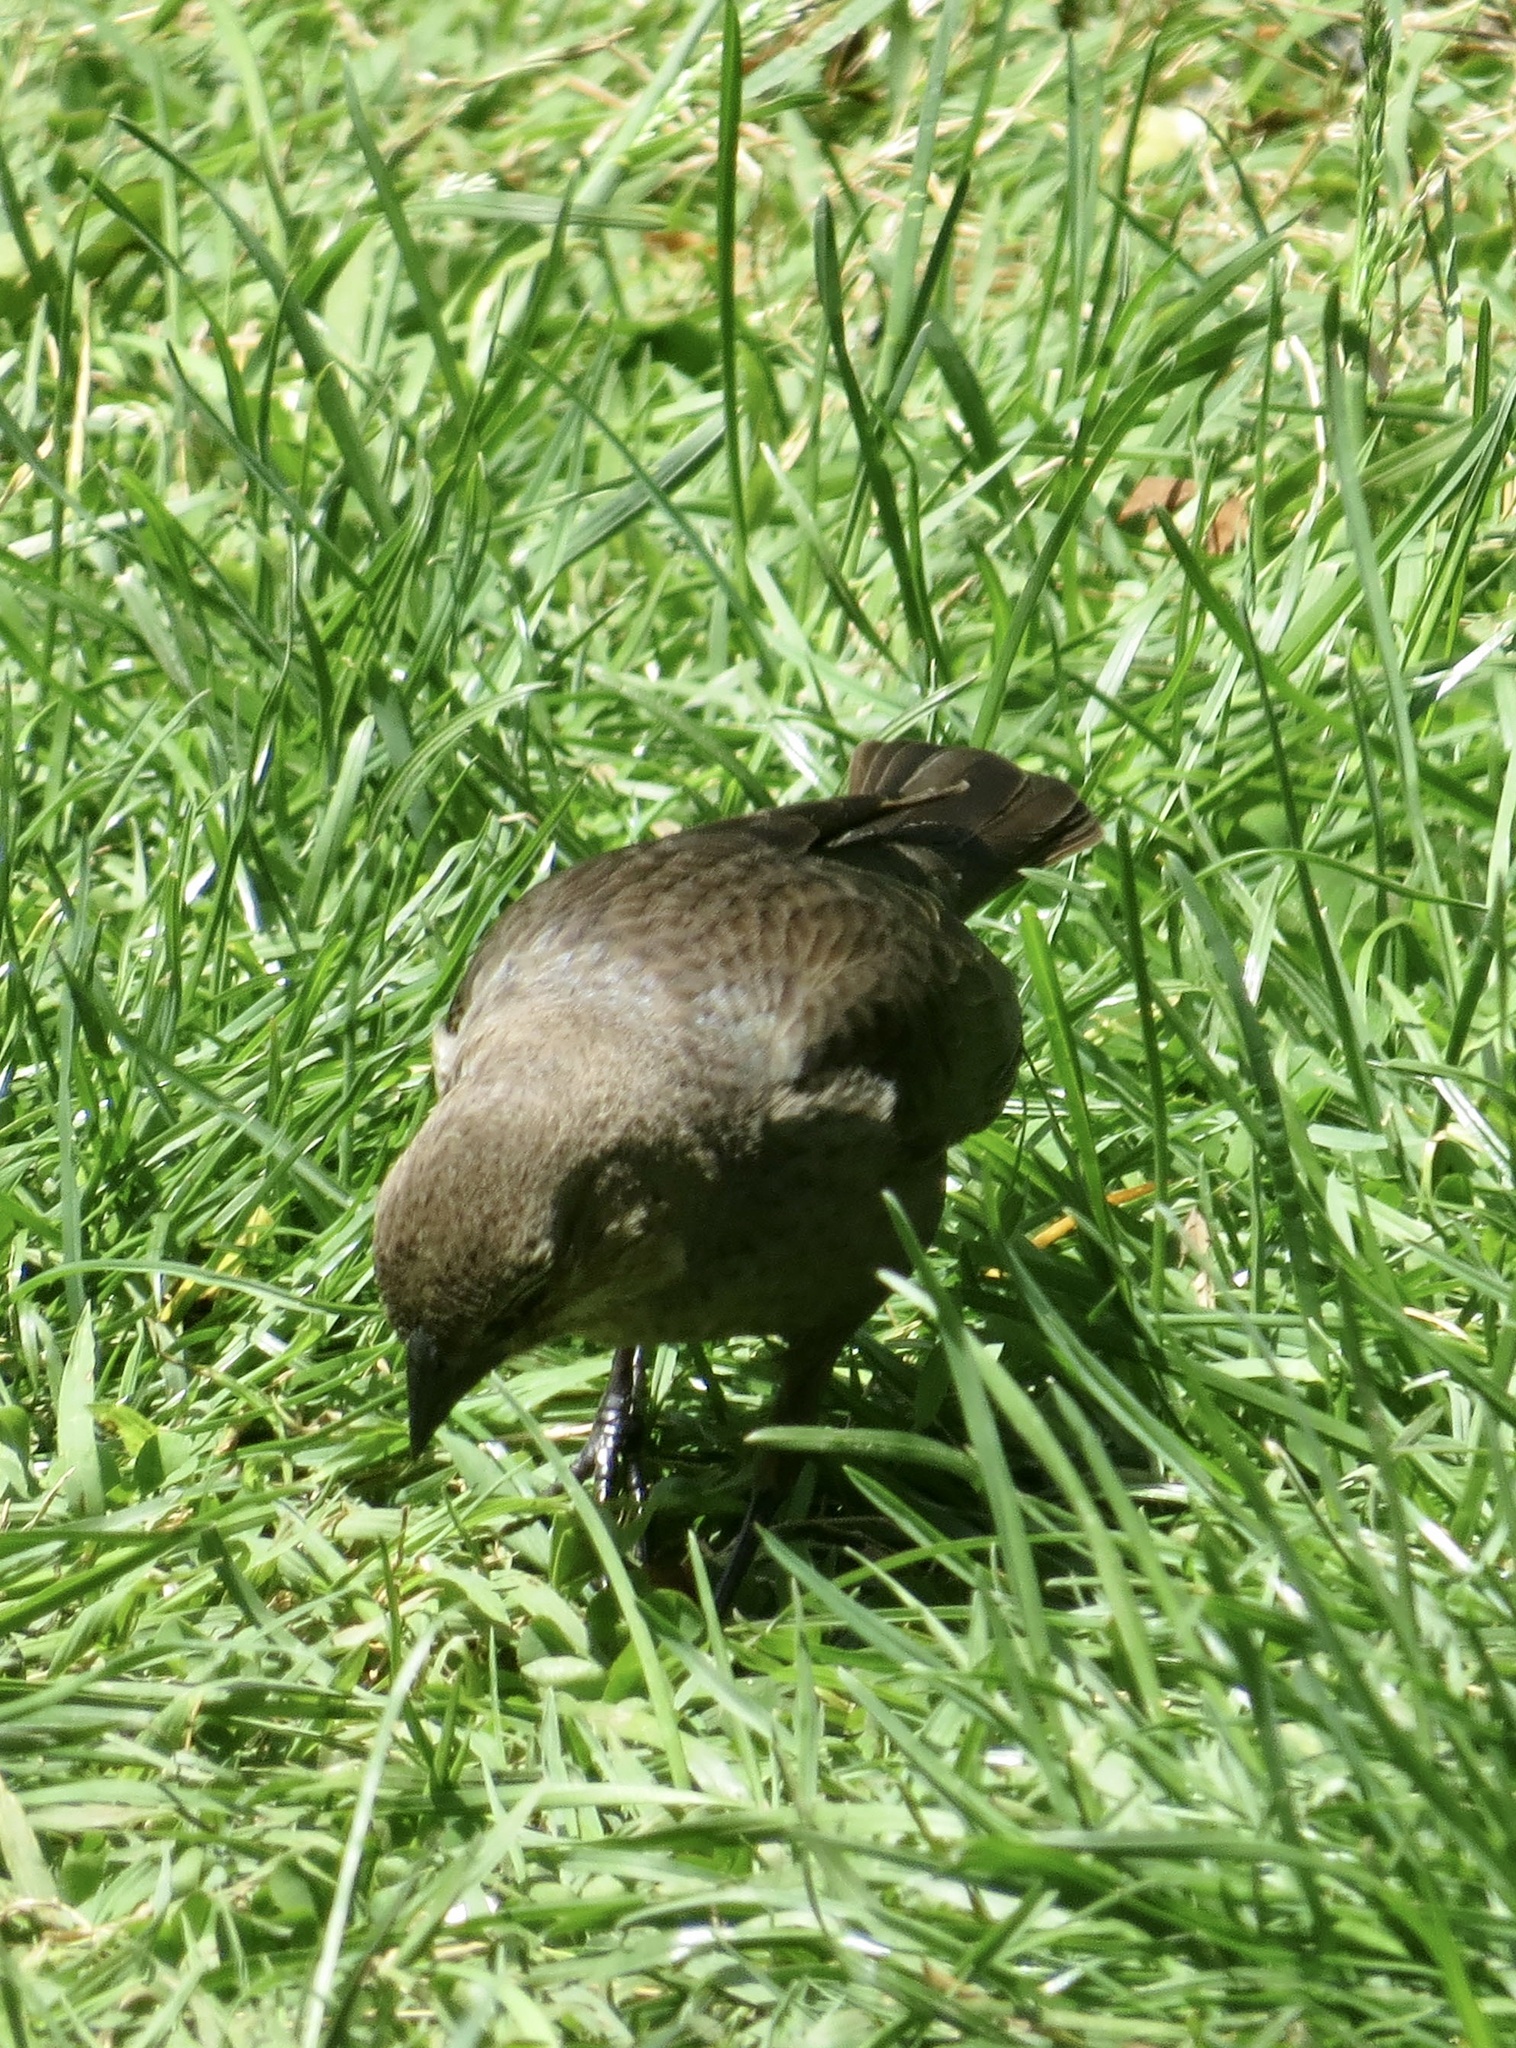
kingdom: Animalia
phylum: Chordata
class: Aves
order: Passeriformes
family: Icteridae
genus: Molothrus
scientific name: Molothrus ater
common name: Brown-headed cowbird
